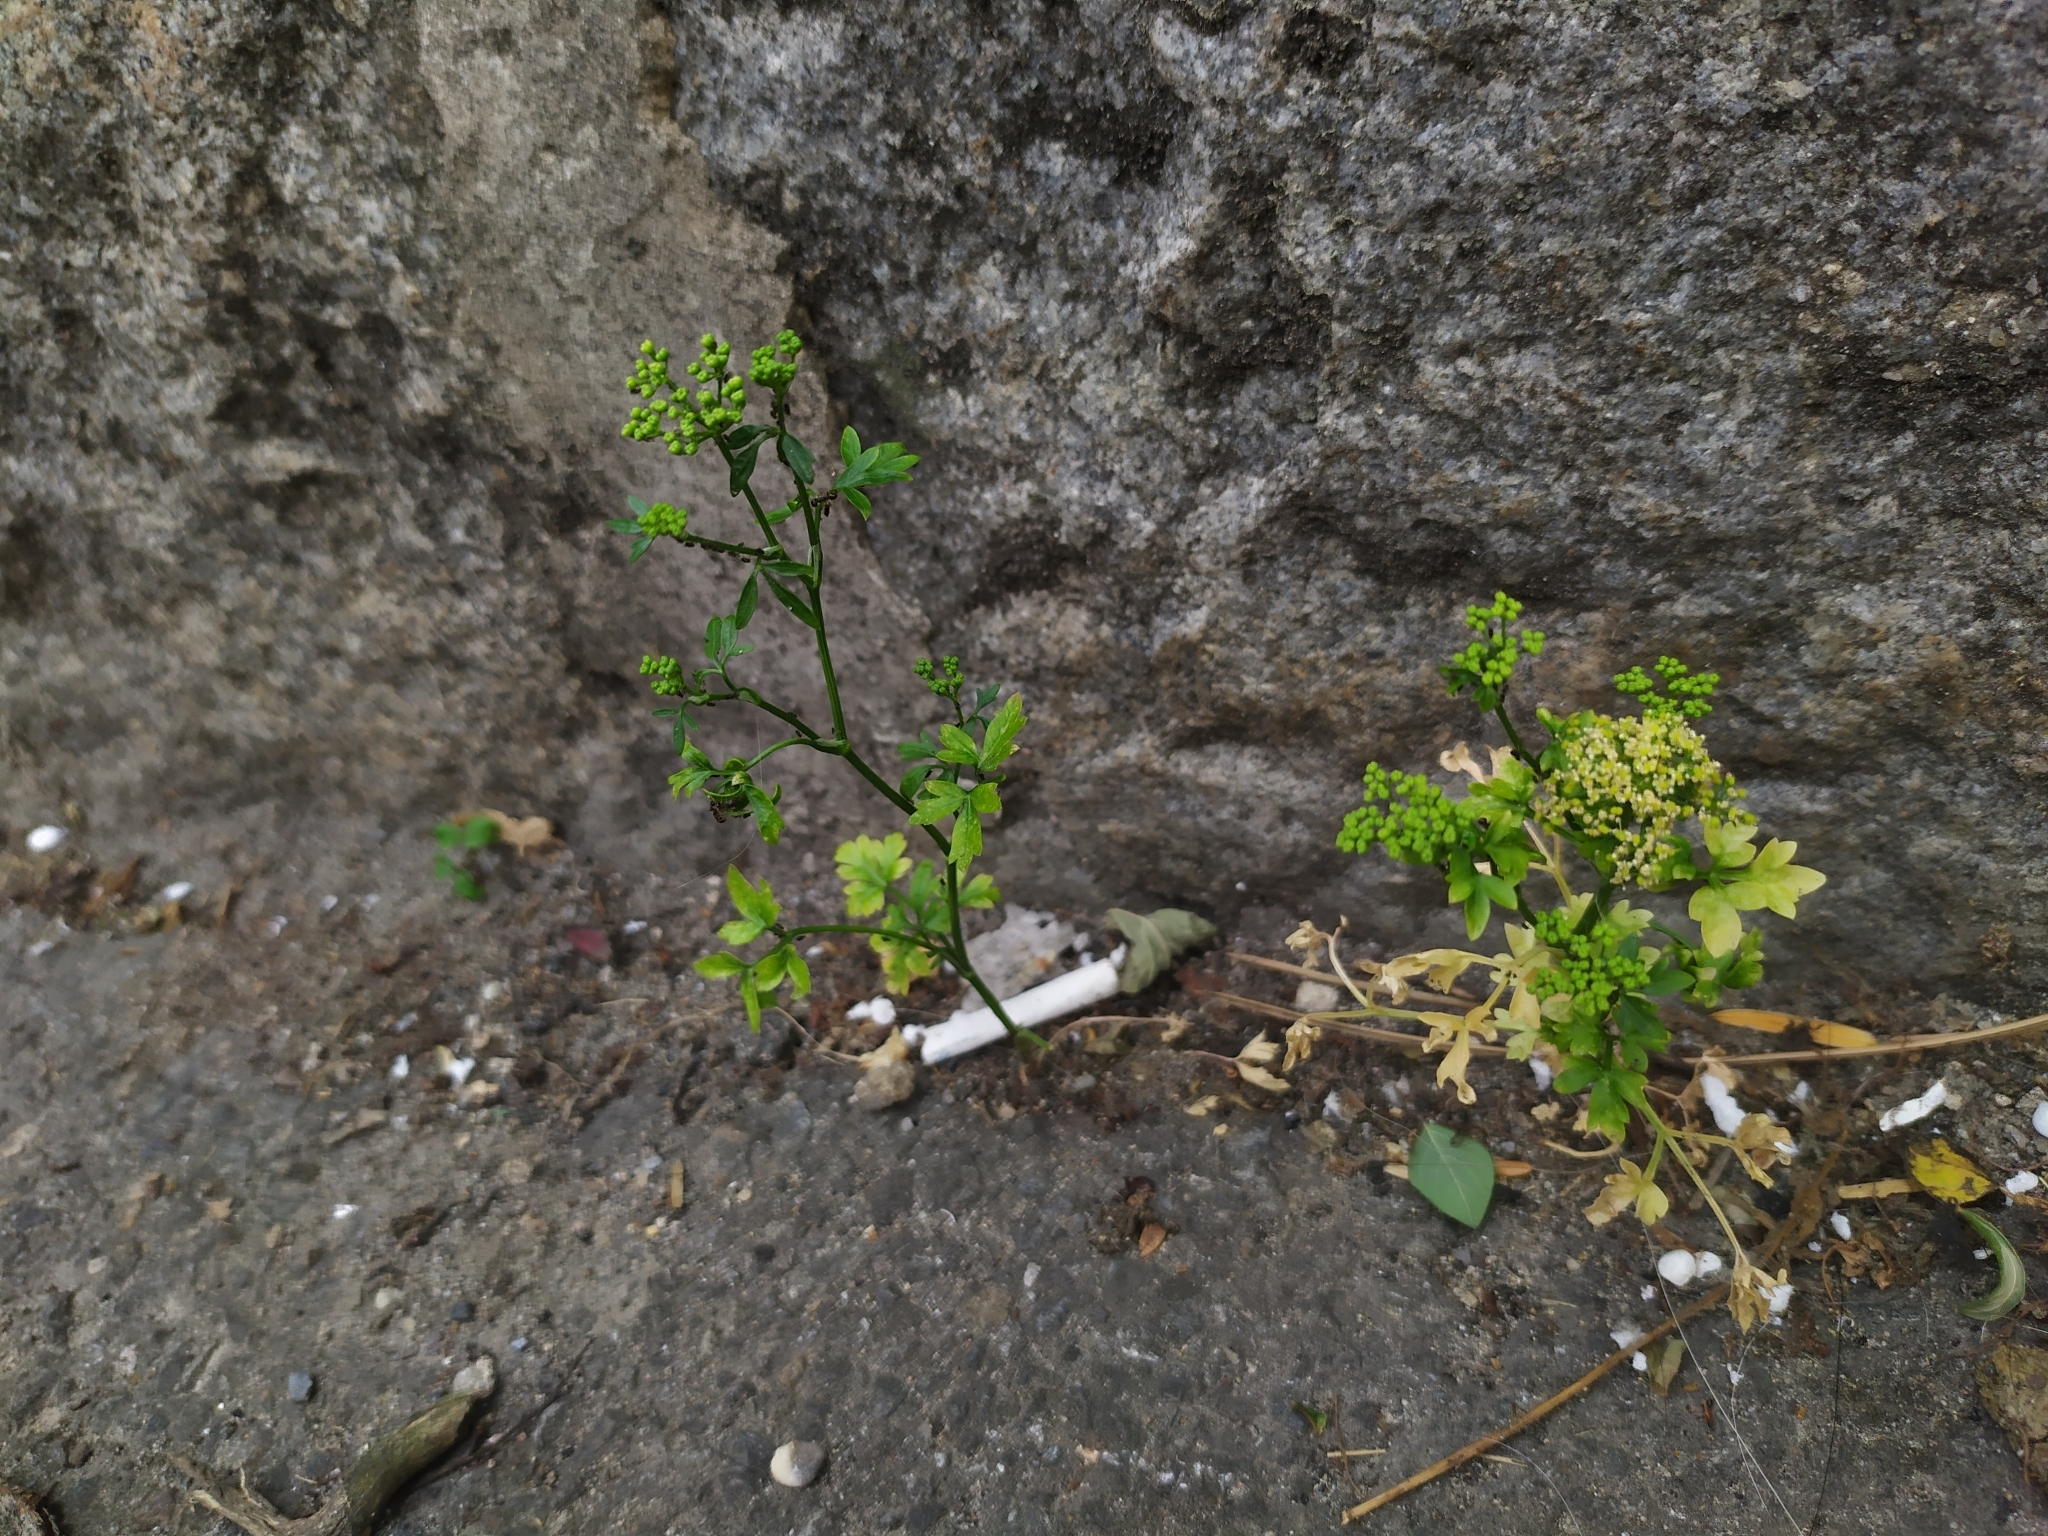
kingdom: Plantae
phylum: Tracheophyta
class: Magnoliopsida
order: Apiales
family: Apiaceae
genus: Petroselinum
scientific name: Petroselinum crispum
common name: Parsley
